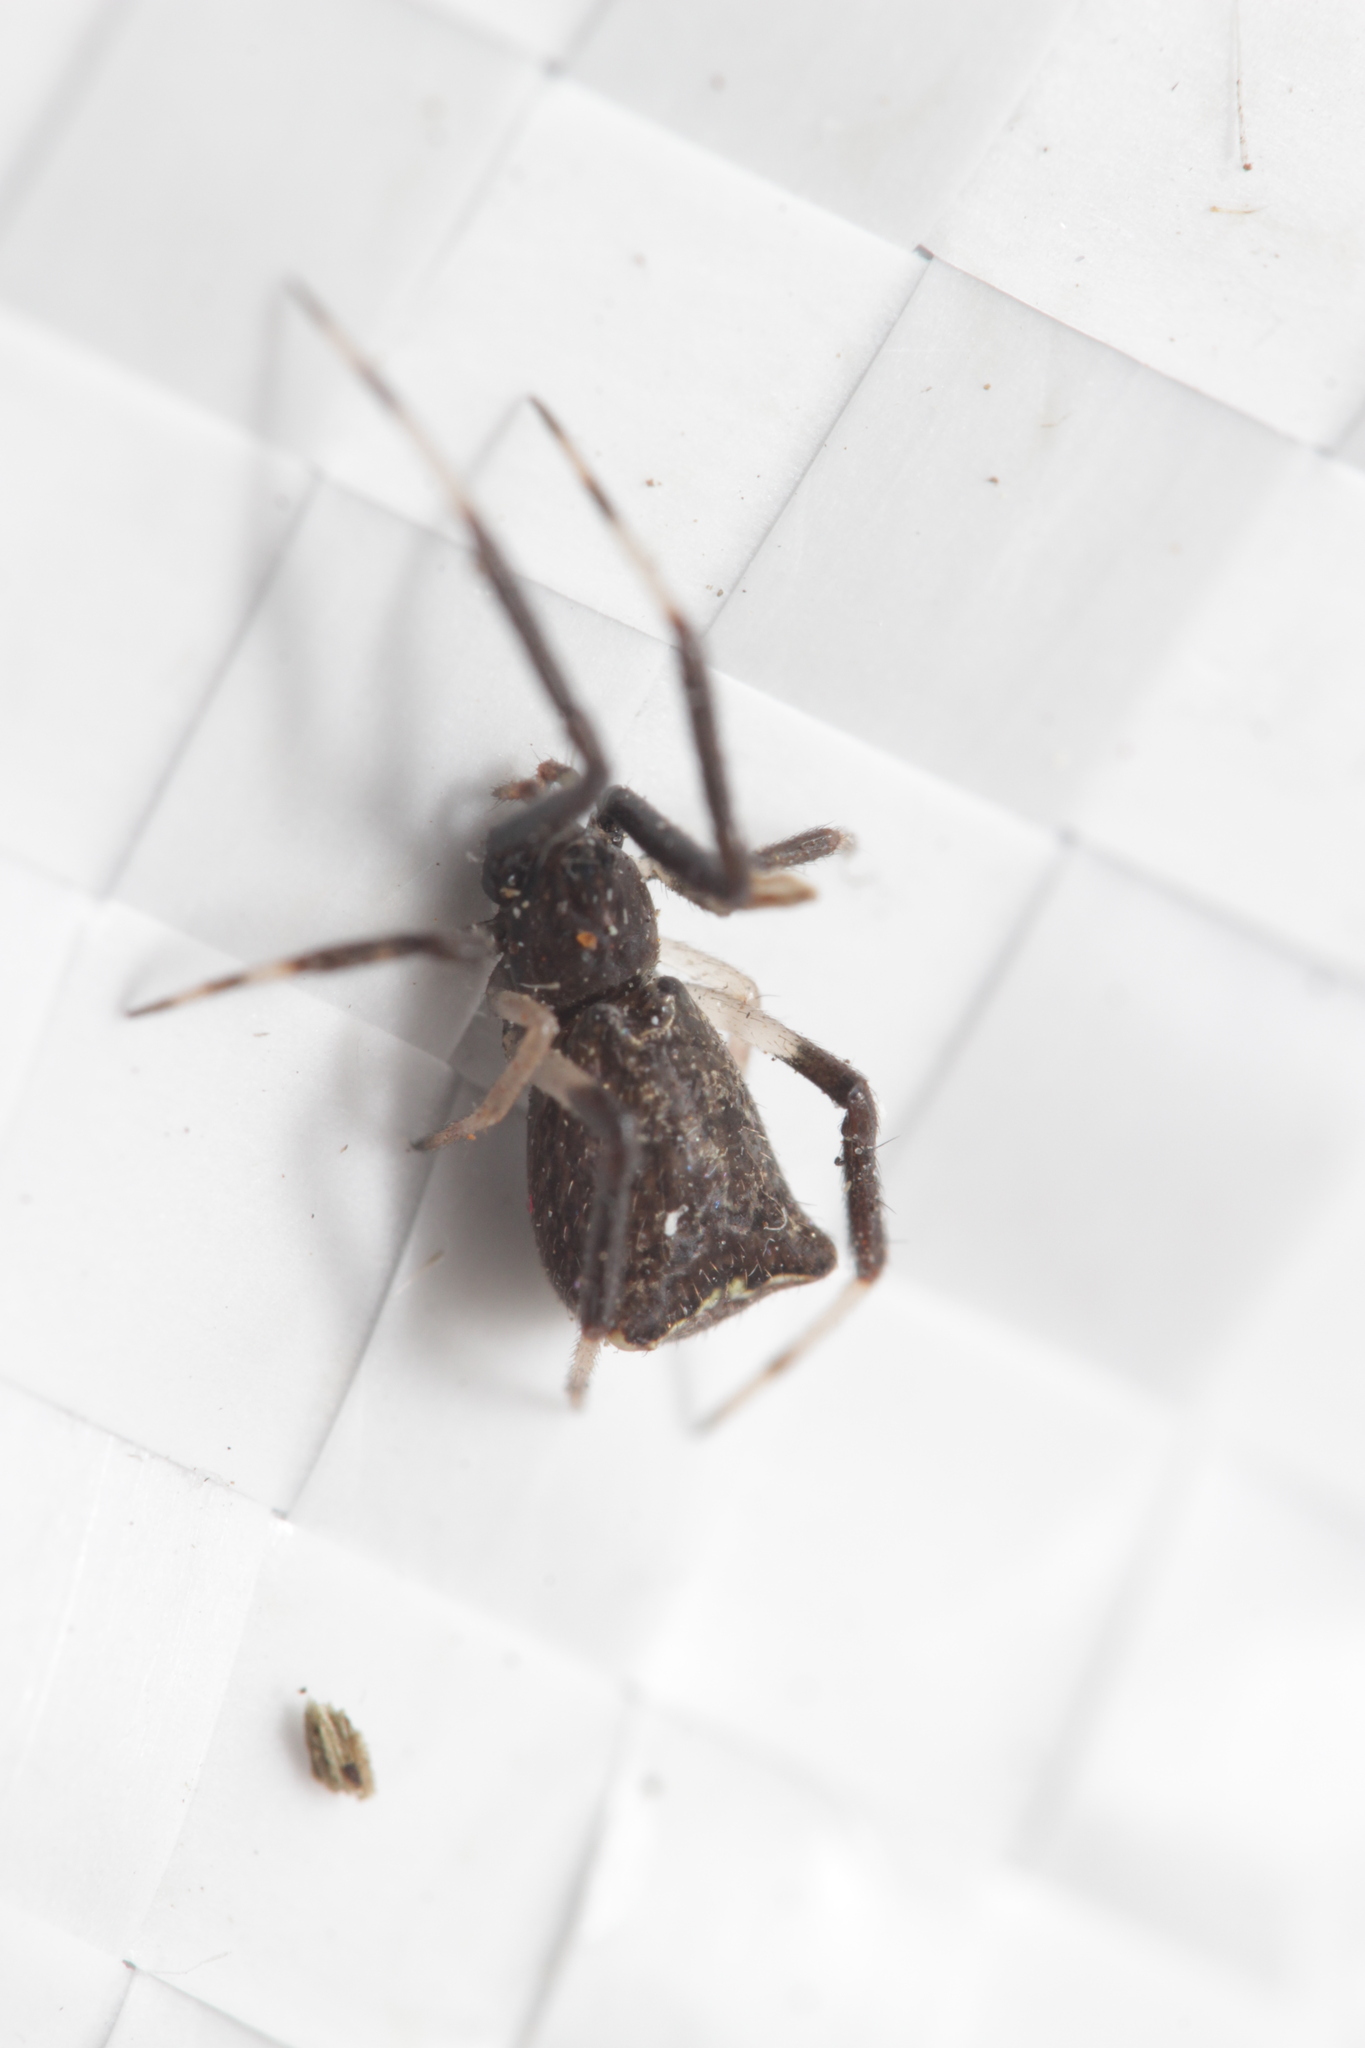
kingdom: Animalia
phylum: Arthropoda
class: Arachnida
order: Araneae
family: Theridiidae
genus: Episinus
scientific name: Episinus truncatus
